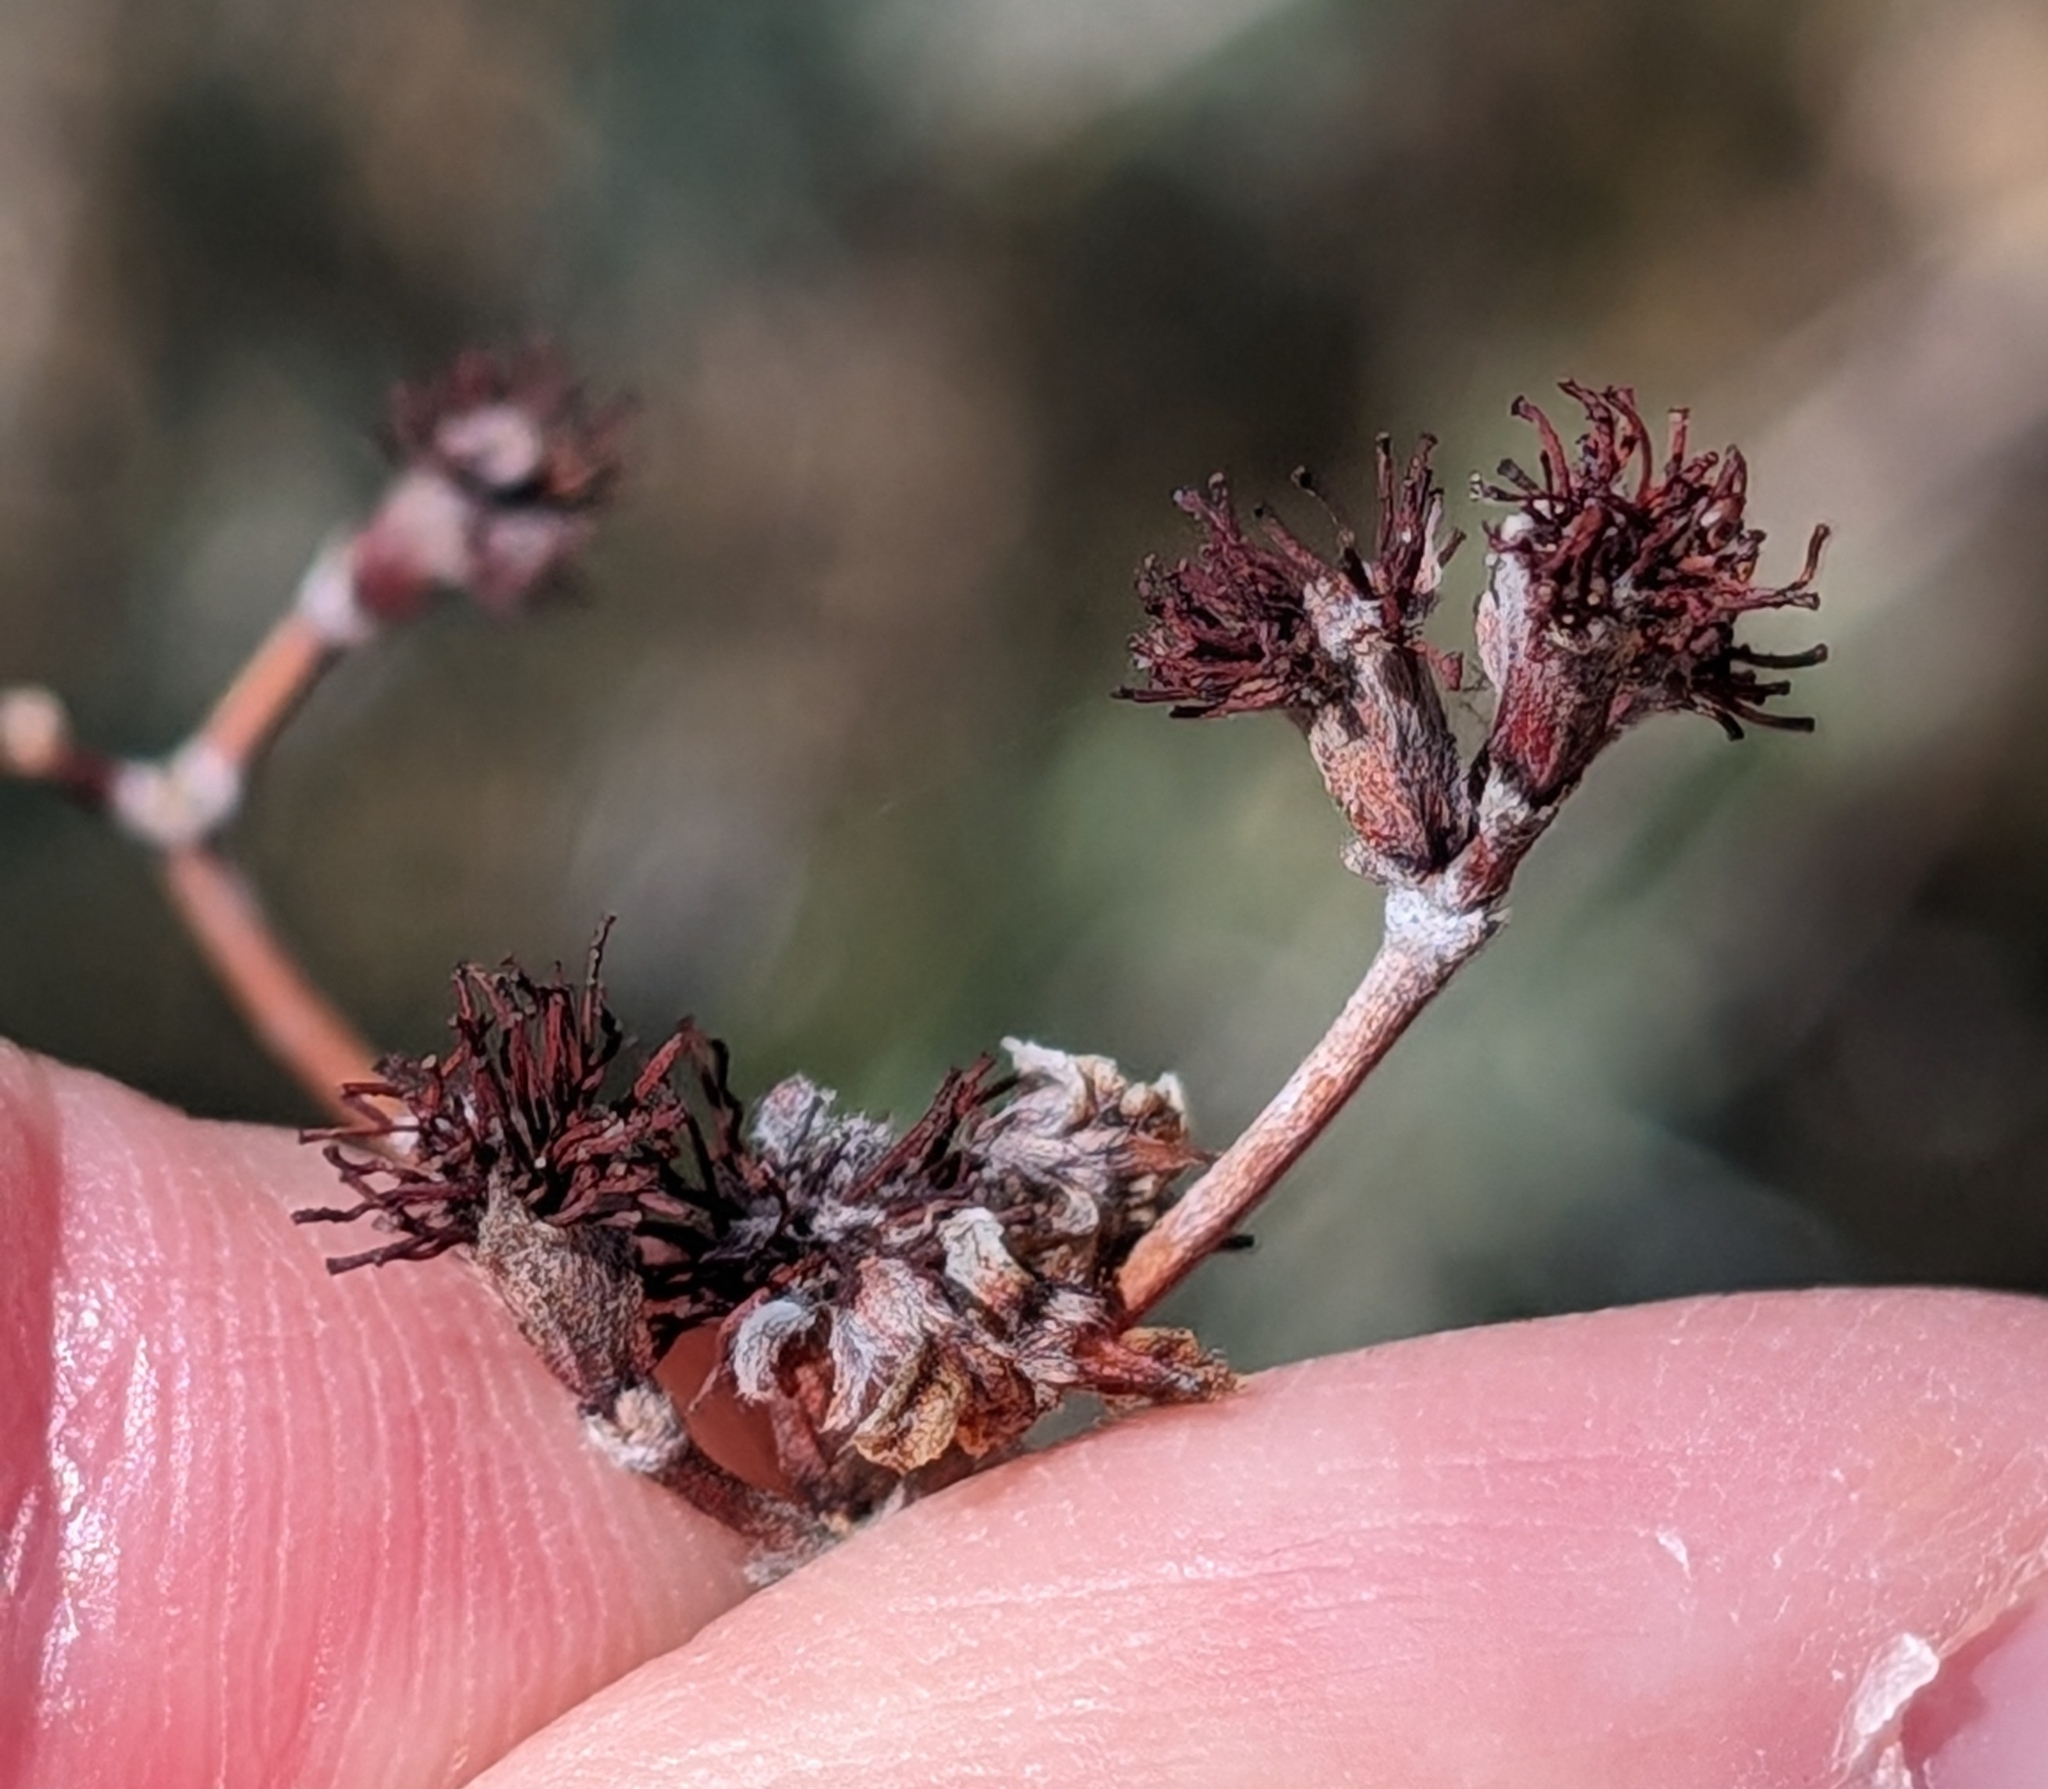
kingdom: Plantae
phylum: Tracheophyta
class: Magnoliopsida
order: Caryophyllales
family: Polygonaceae
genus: Eriogonum
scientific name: Eriogonum fasciculatum
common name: California wild buckwheat
